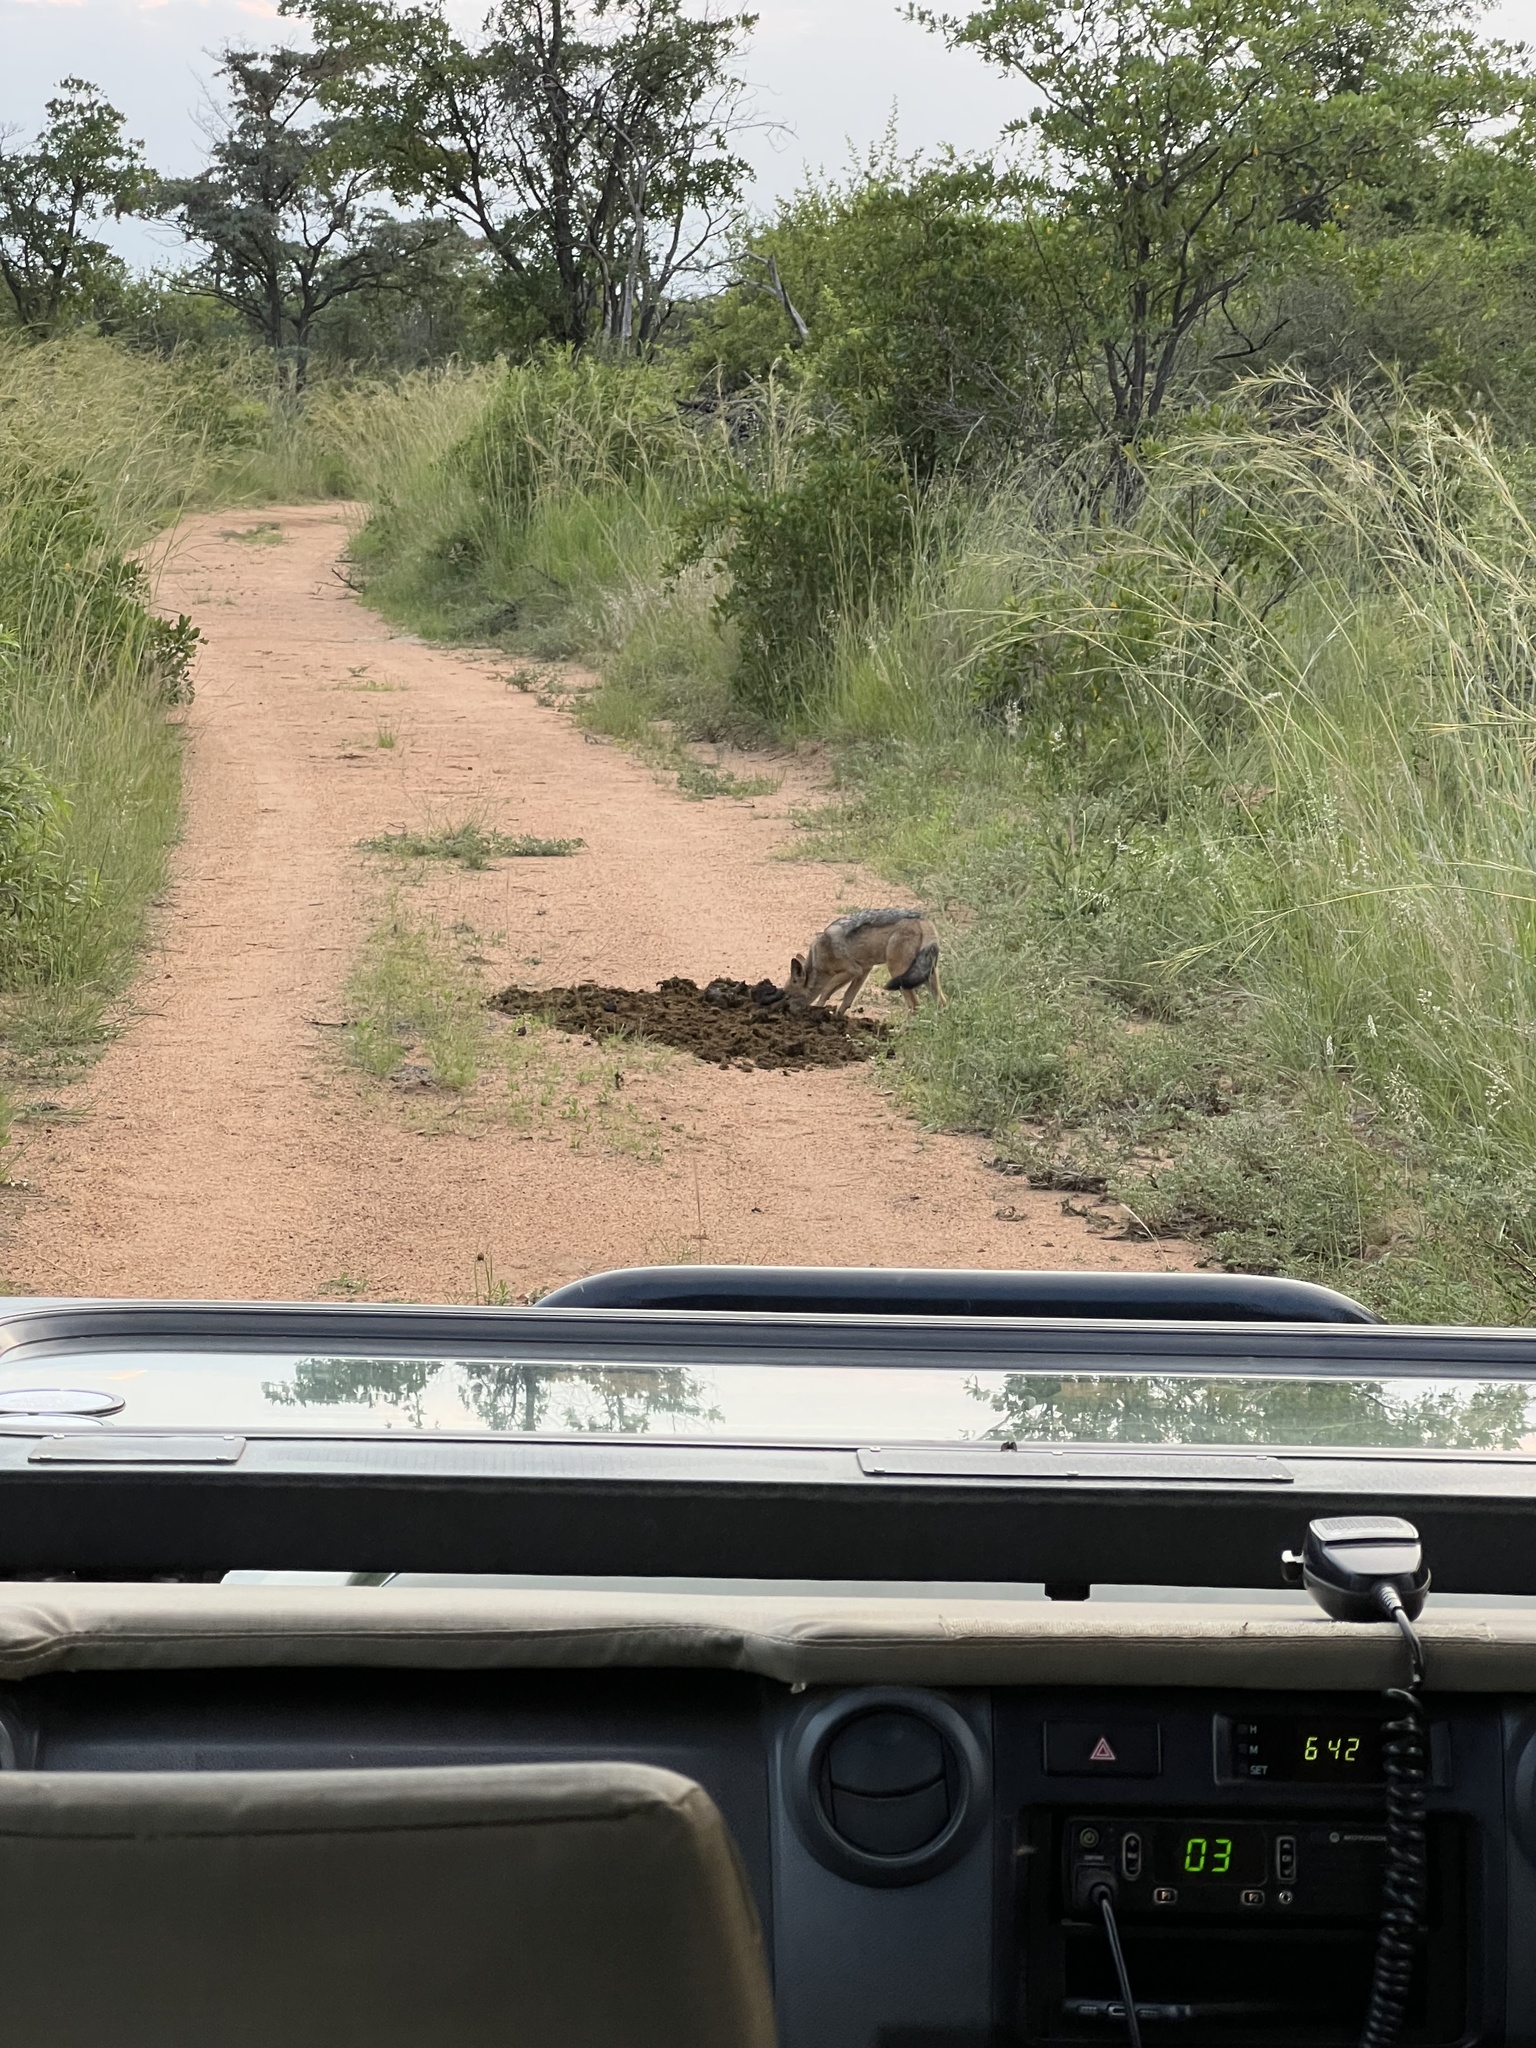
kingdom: Animalia
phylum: Chordata
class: Mammalia
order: Carnivora
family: Canidae
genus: Lupulella
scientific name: Lupulella
